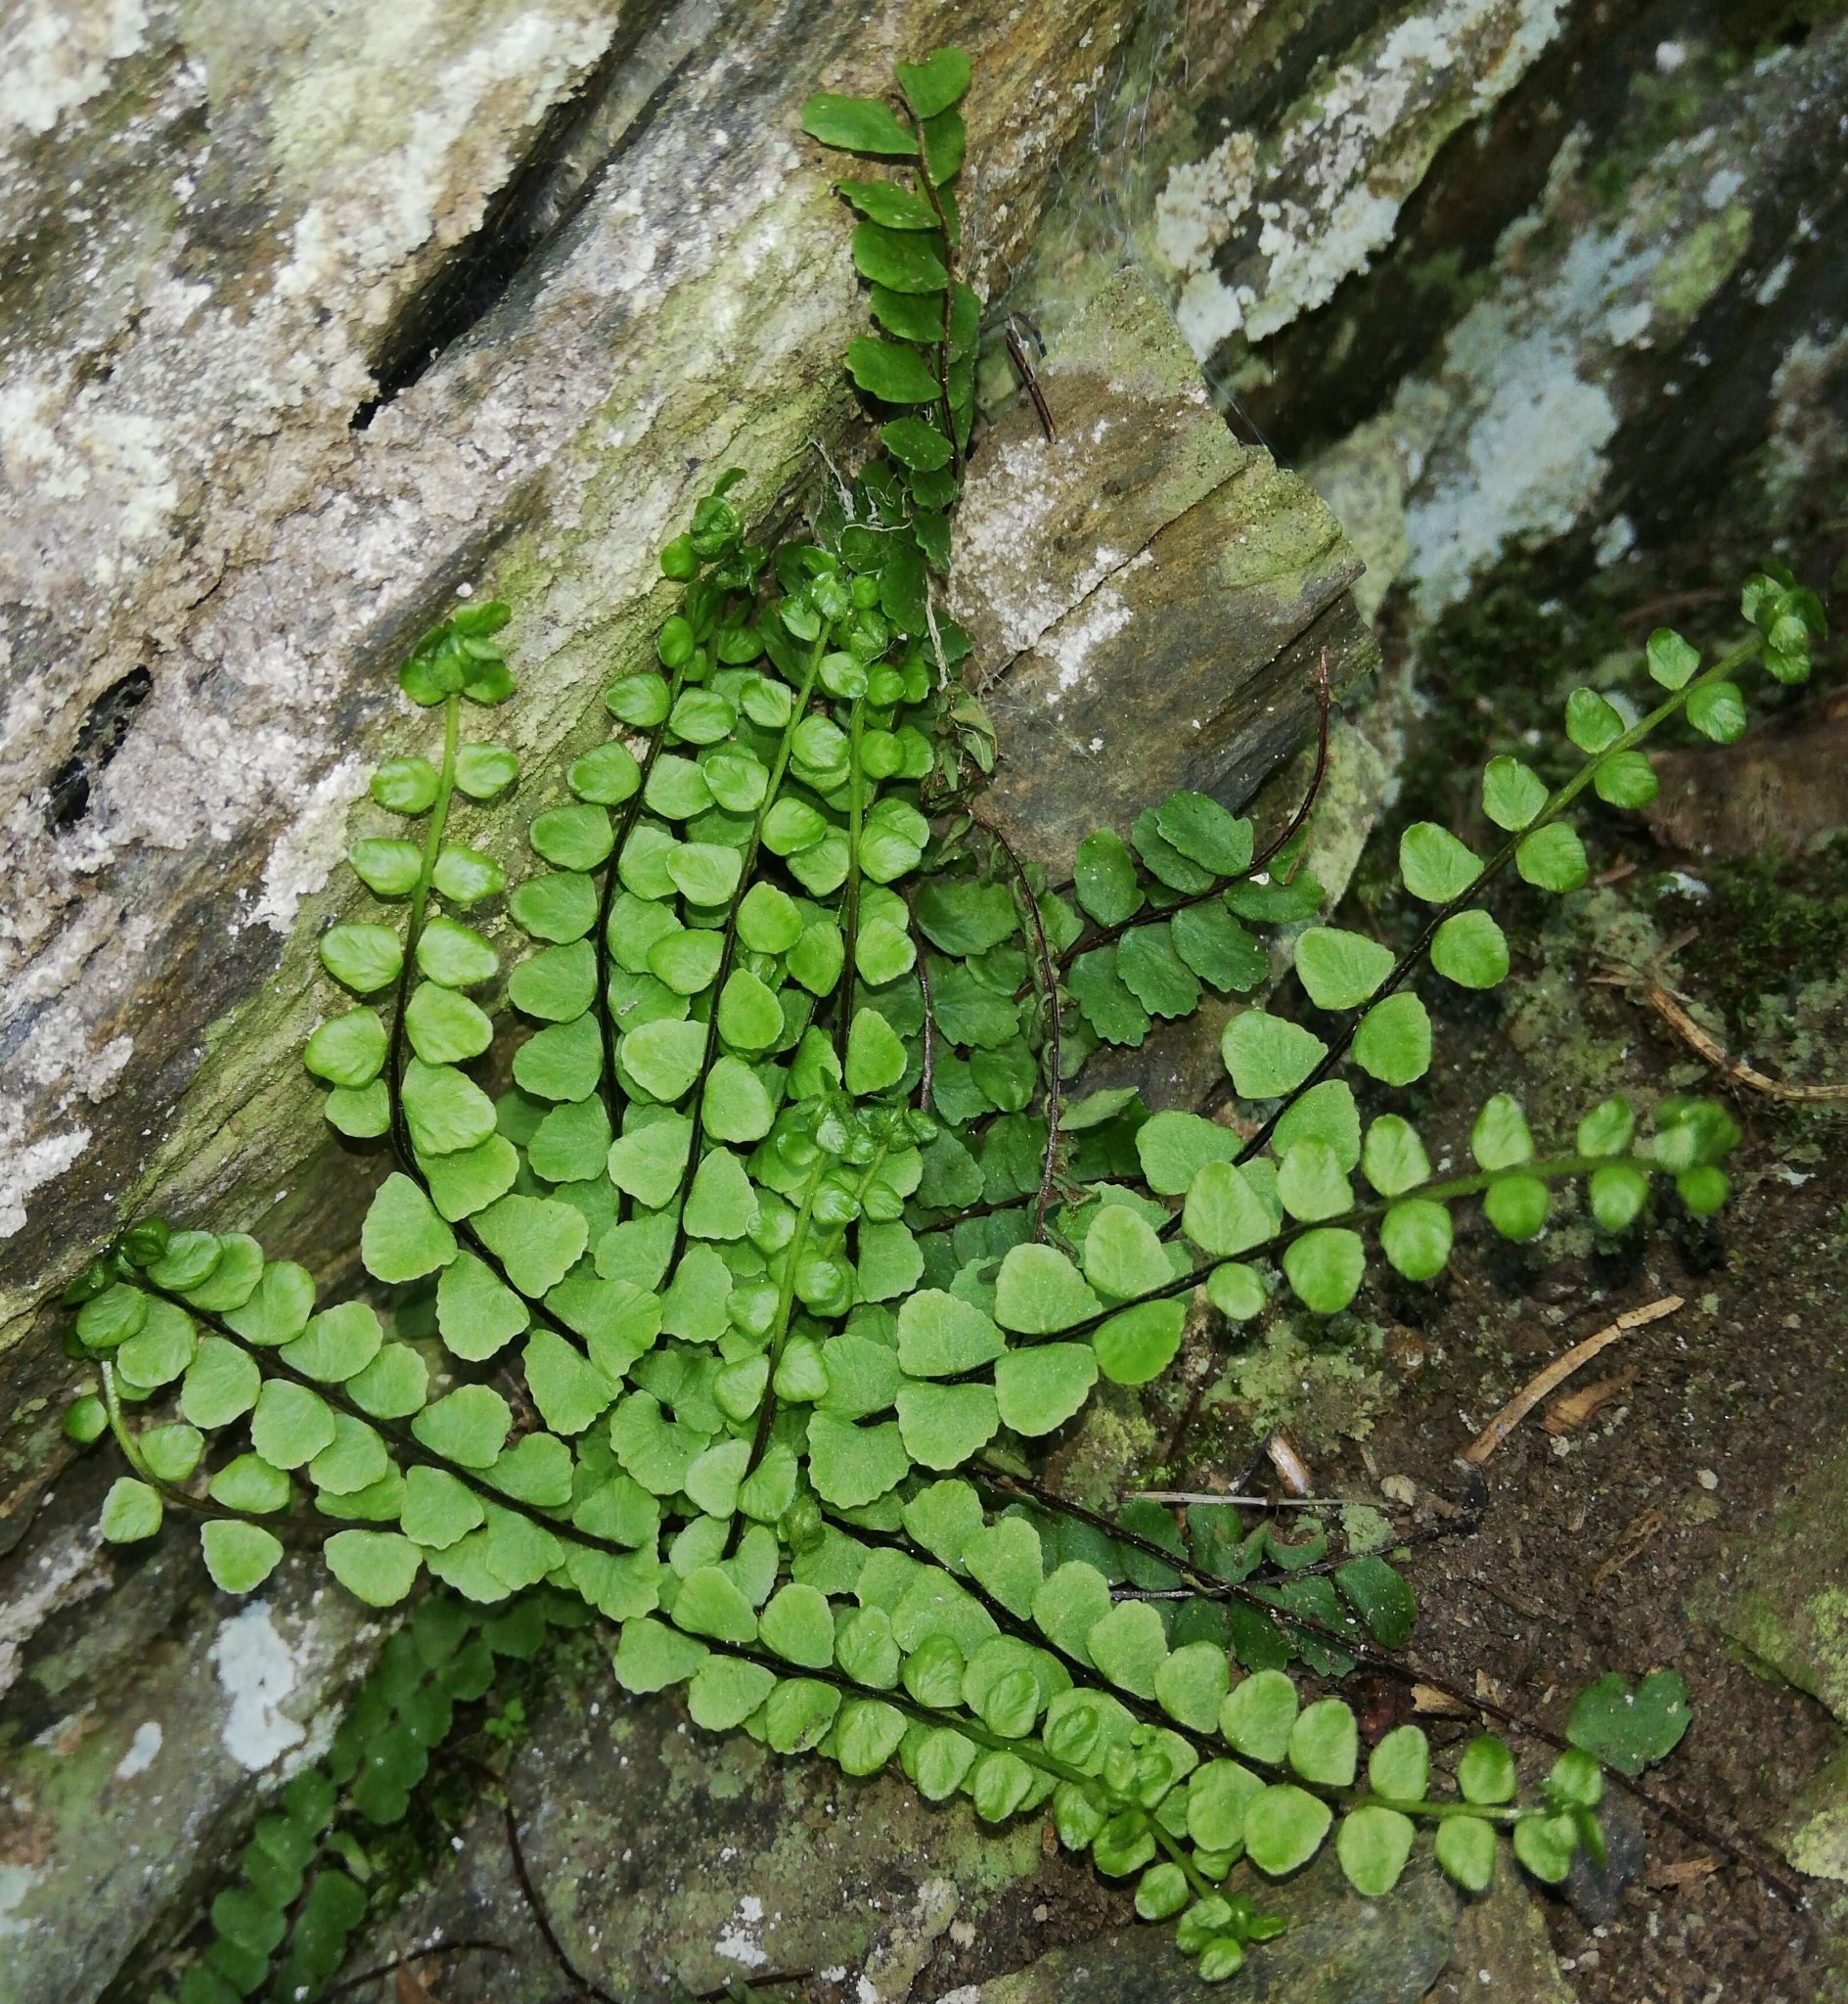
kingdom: Plantae
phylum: Tracheophyta
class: Polypodiopsida
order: Polypodiales
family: Aspleniaceae
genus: Asplenium
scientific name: Asplenium trichomanes
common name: Maidenhair spleenwort
